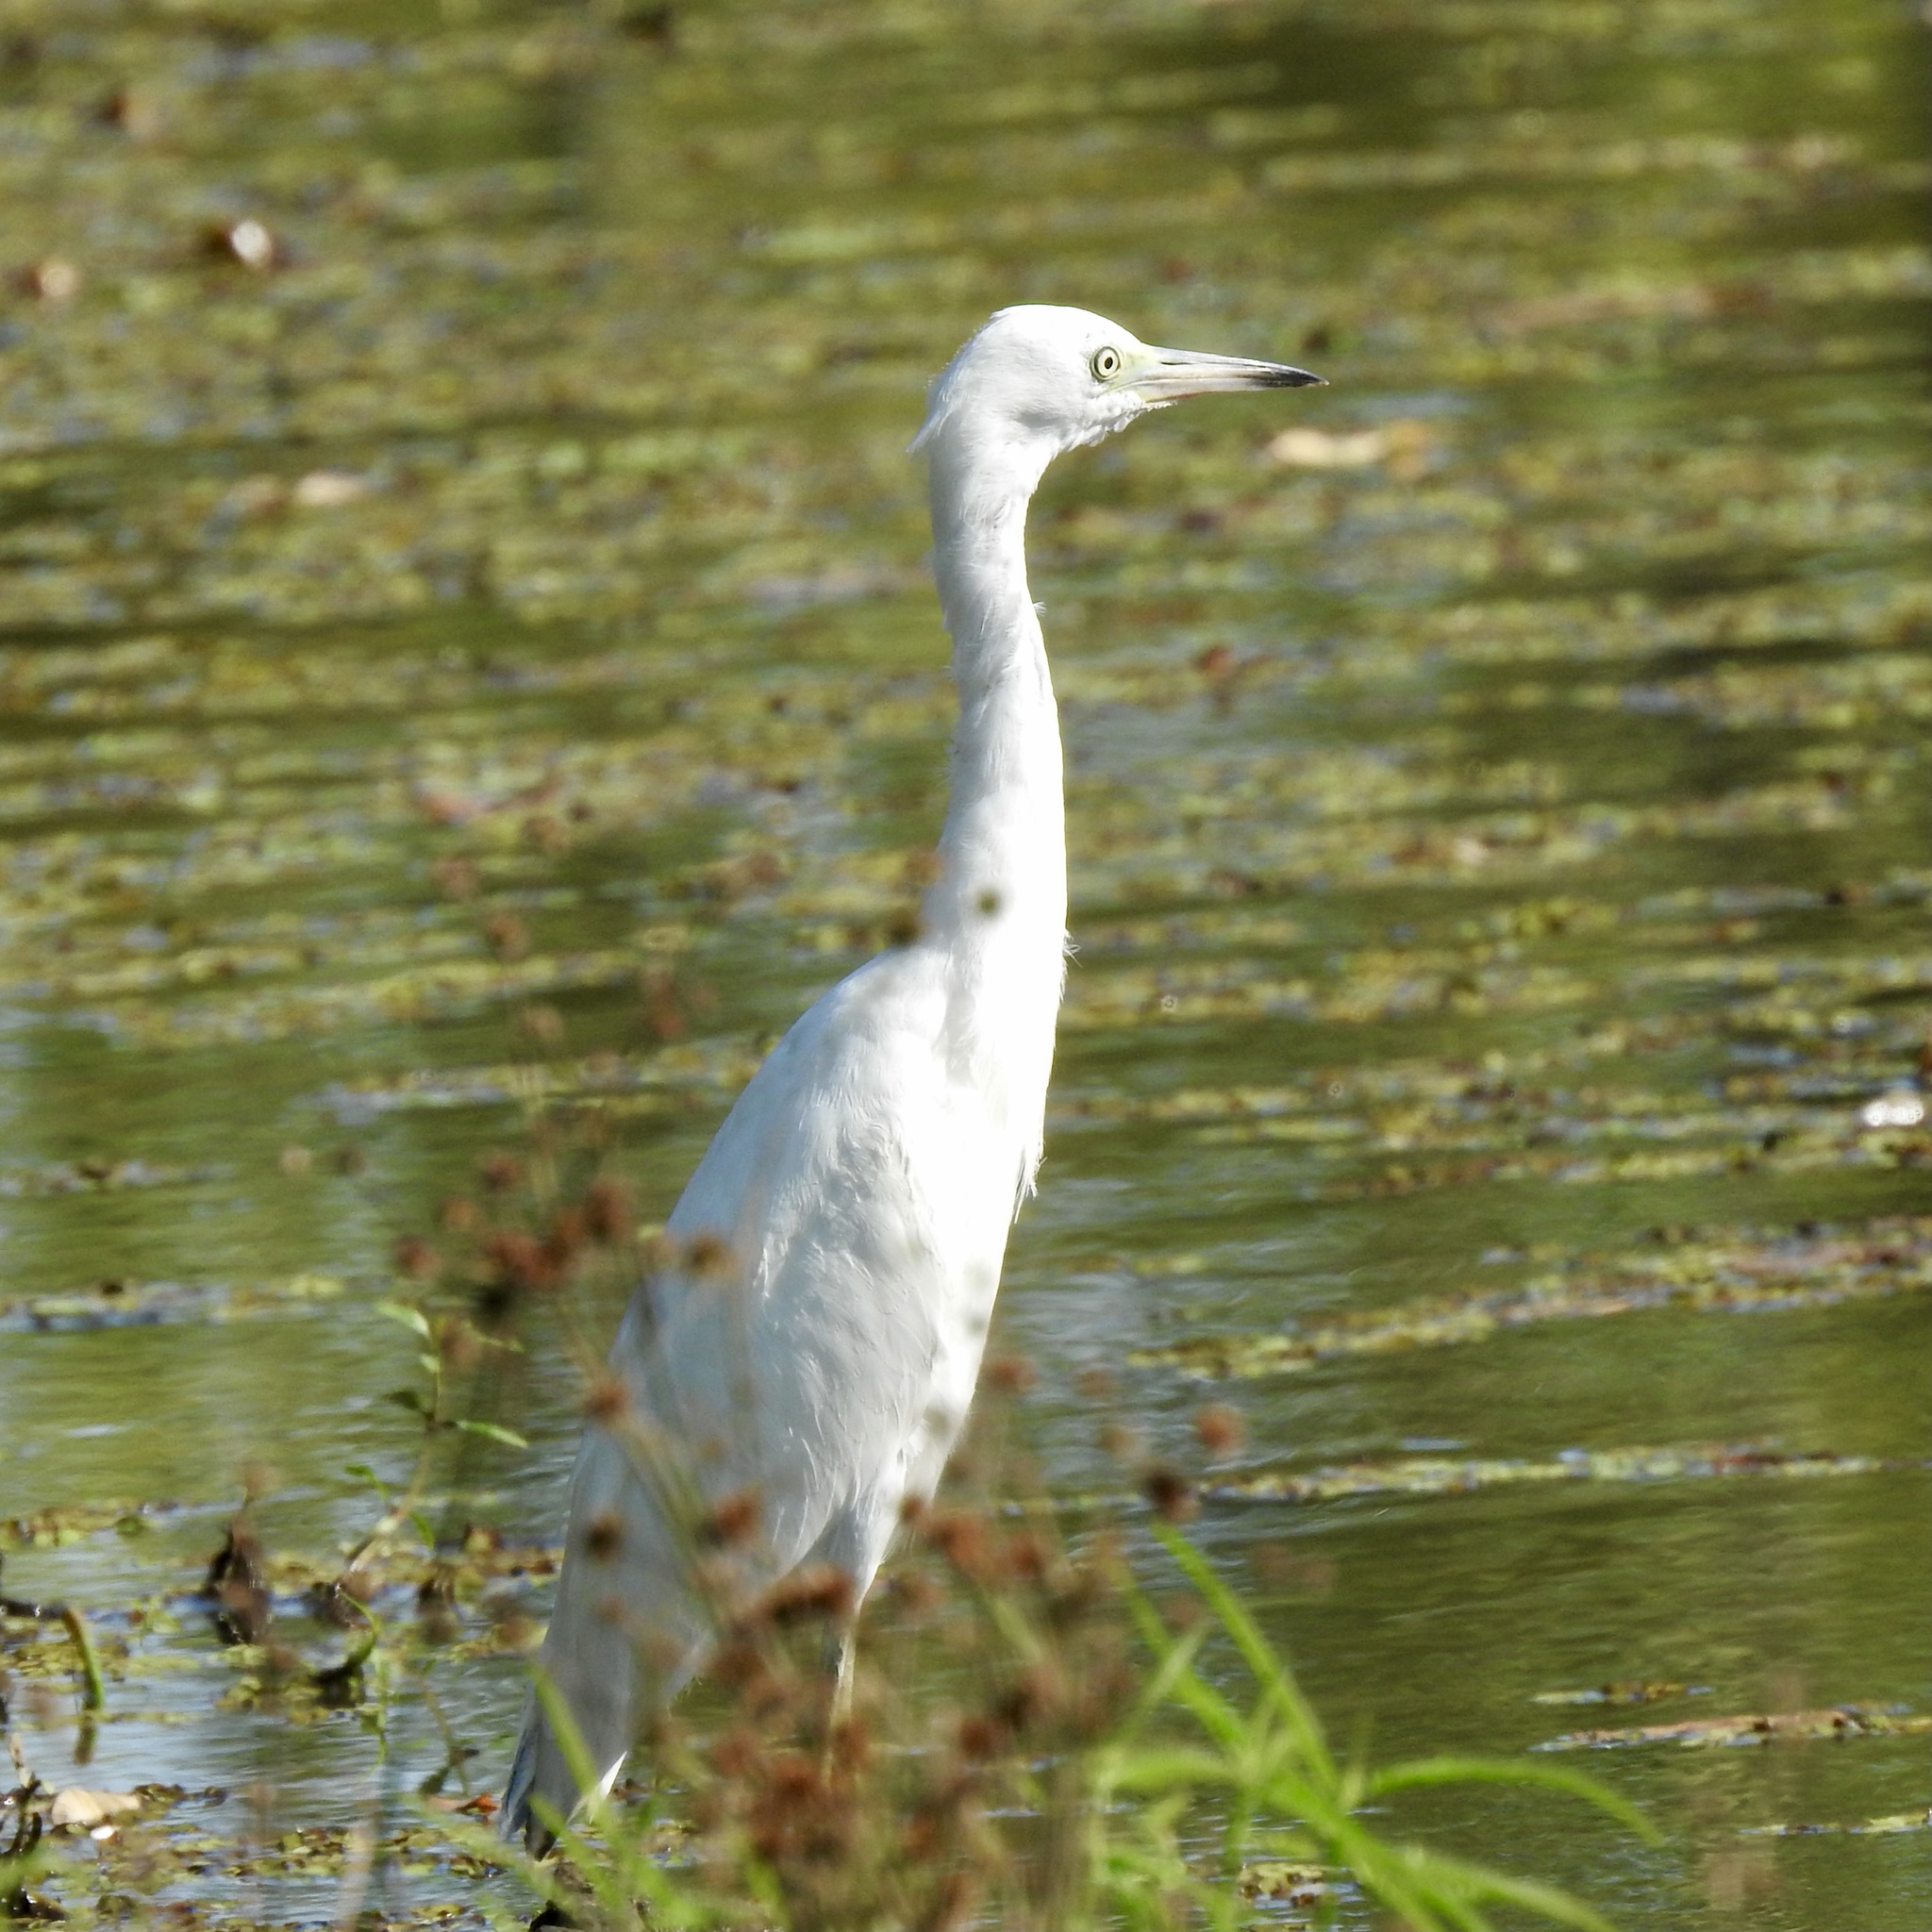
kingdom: Animalia
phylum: Chordata
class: Aves
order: Pelecaniformes
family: Ardeidae
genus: Egretta
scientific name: Egretta caerulea
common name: Little blue heron
